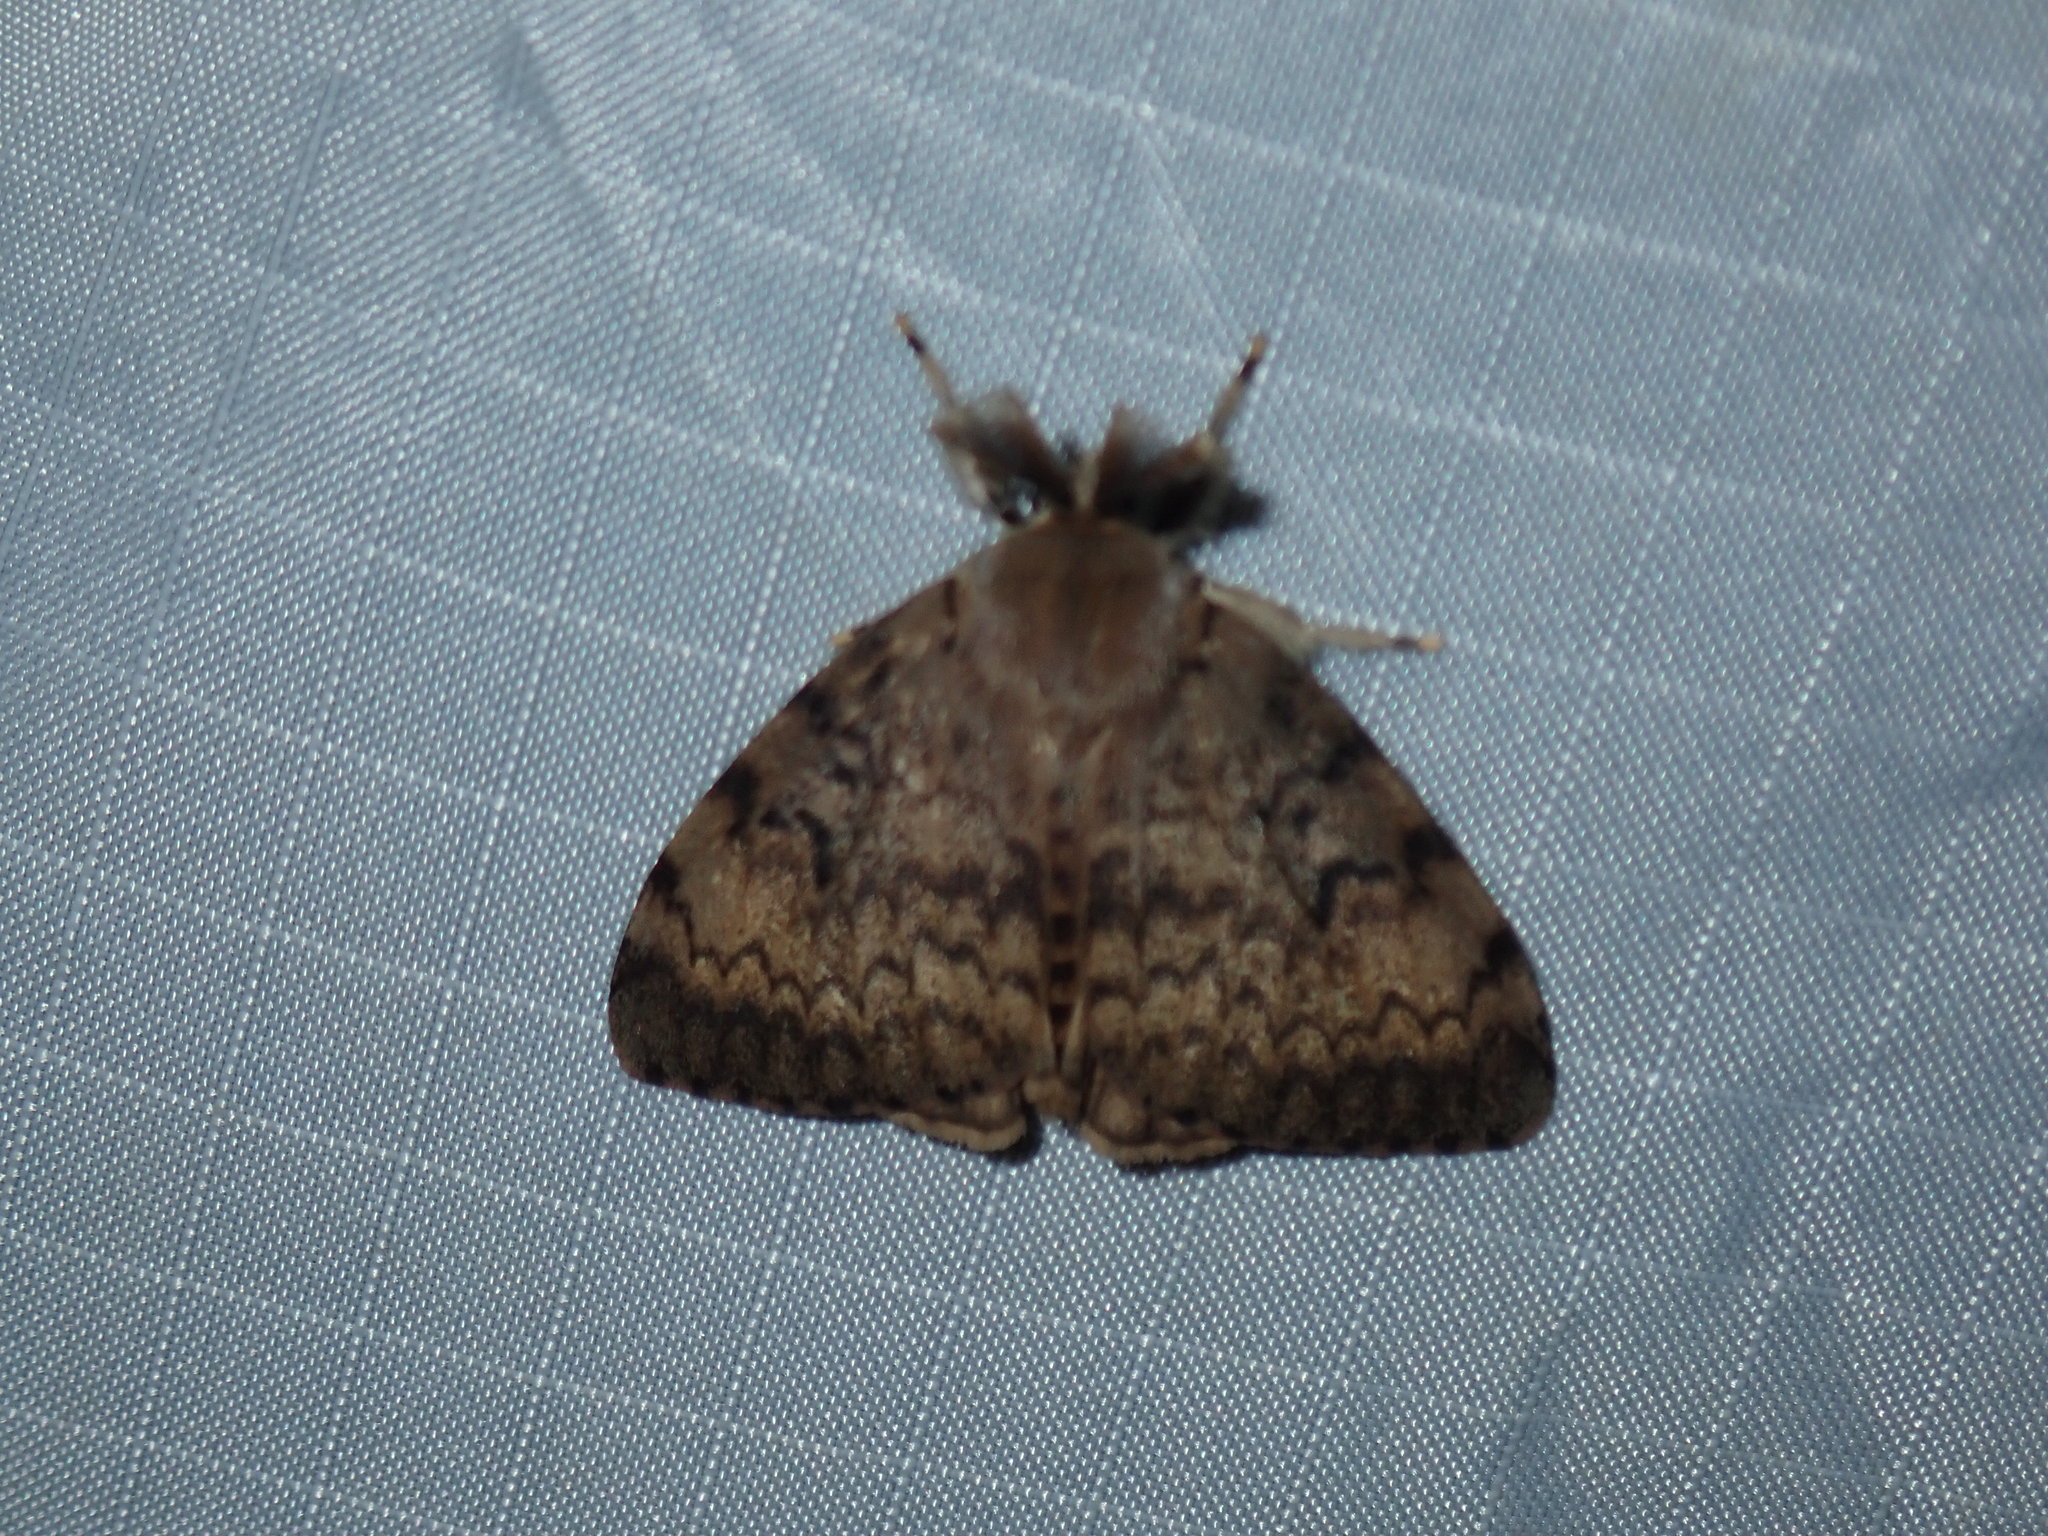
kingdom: Animalia
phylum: Arthropoda
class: Insecta
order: Lepidoptera
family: Erebidae
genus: Lymantria
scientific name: Lymantria dispar
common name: Gypsy moth
